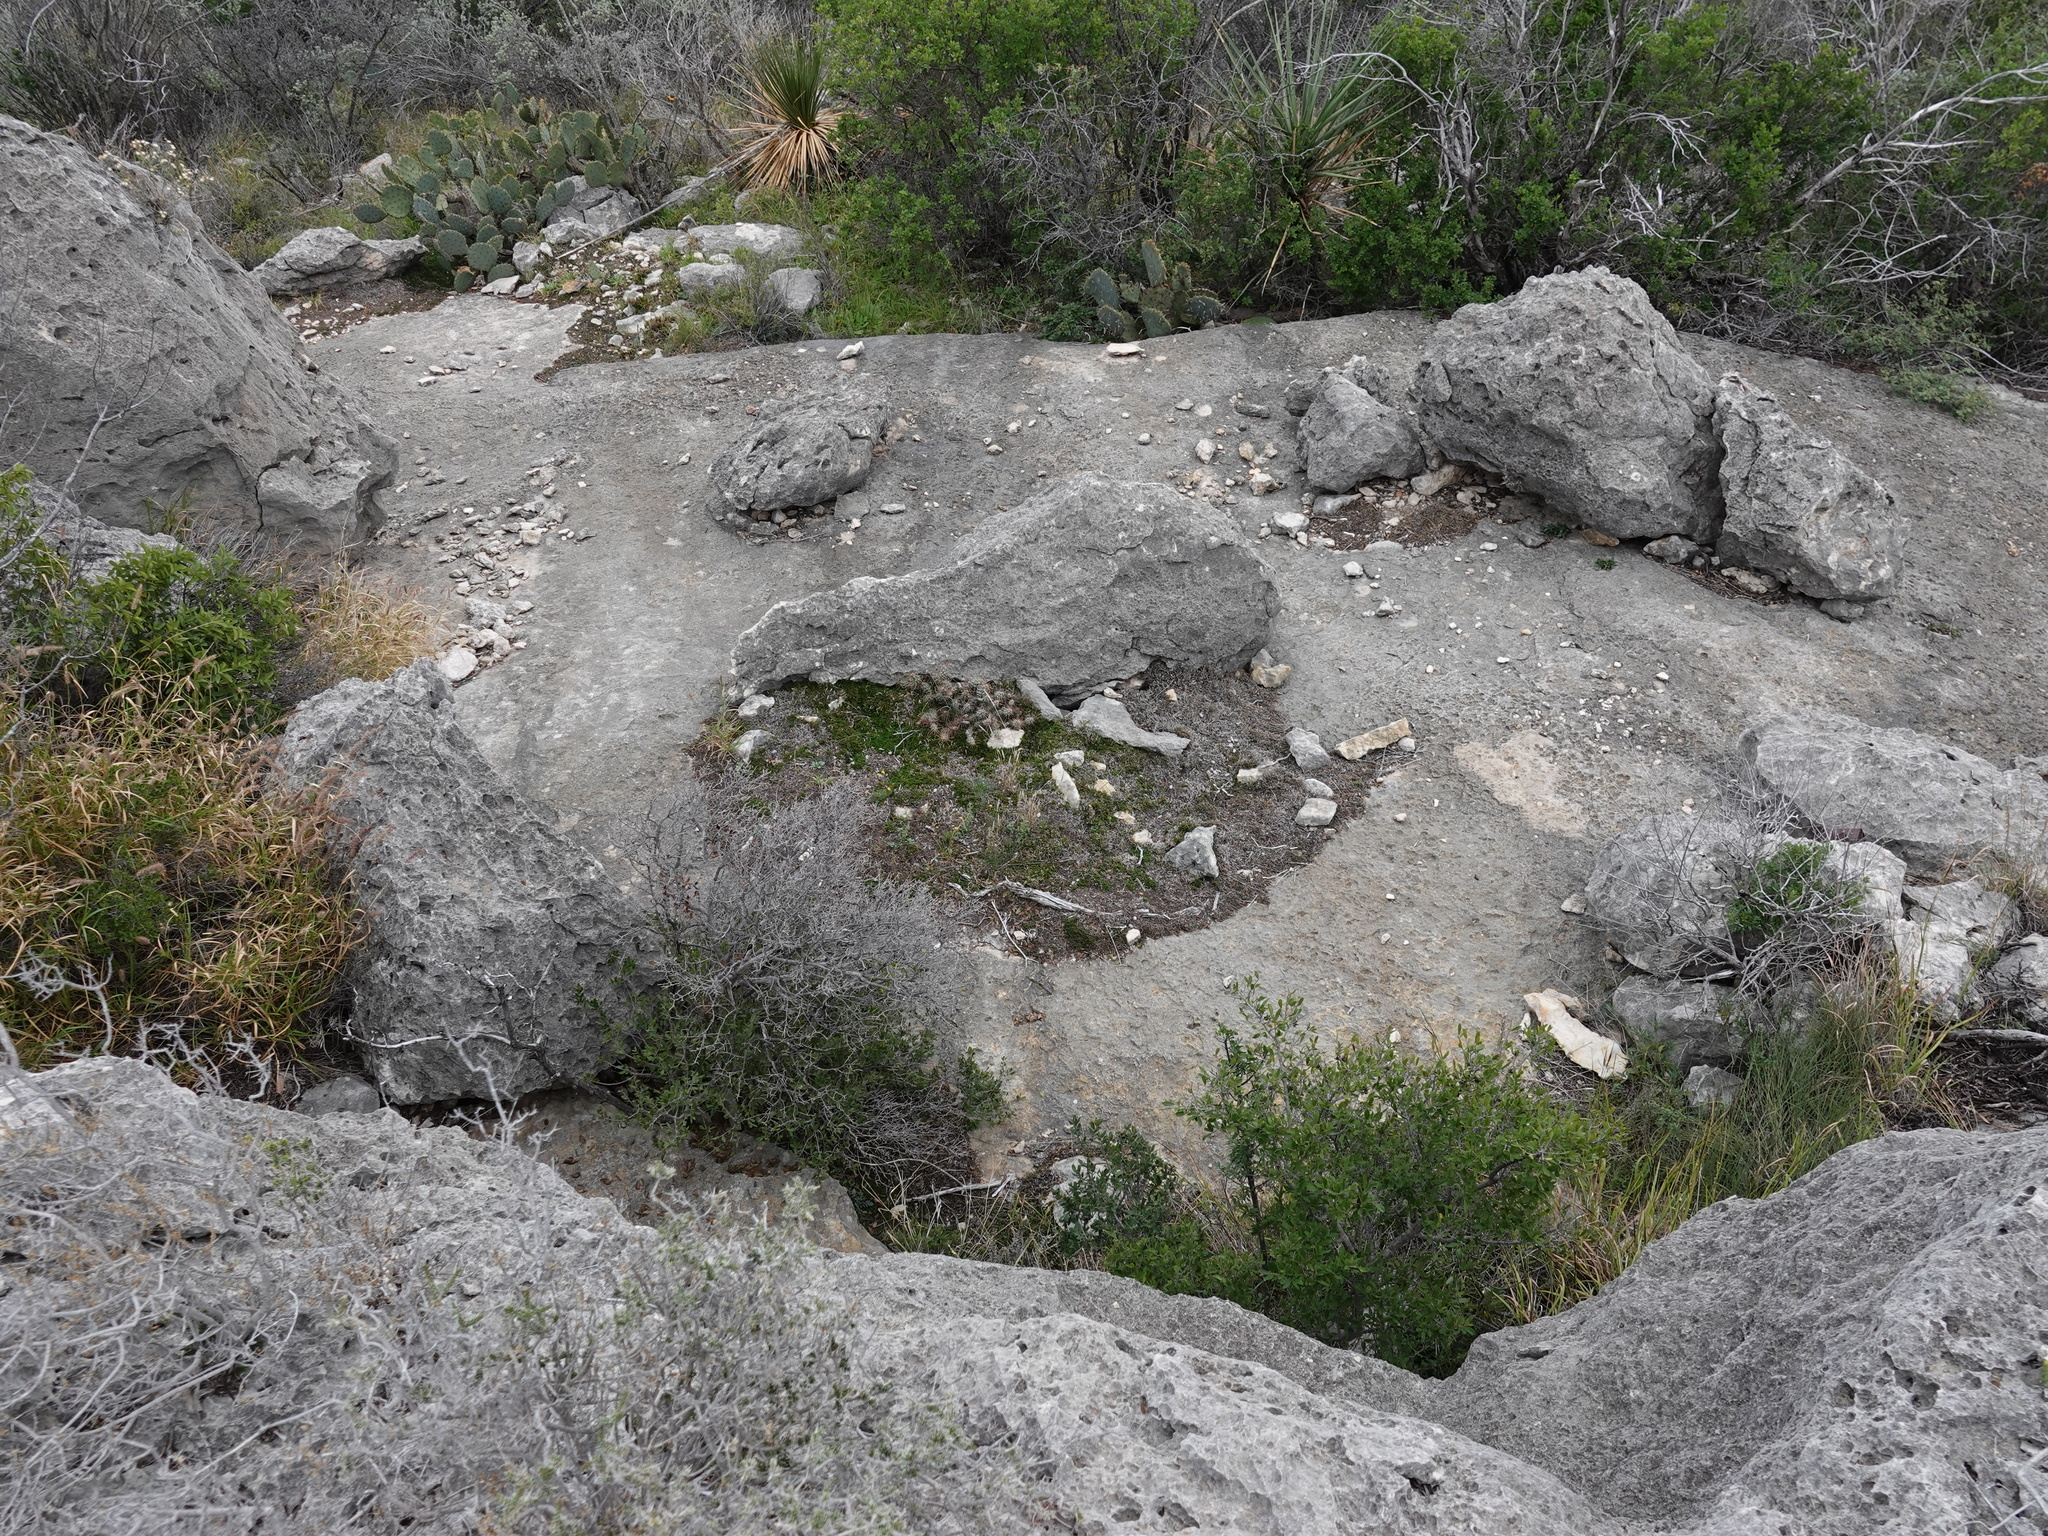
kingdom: Plantae
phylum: Tracheophyta
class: Magnoliopsida
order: Caryophyllales
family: Cactaceae
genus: Grusonia
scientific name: Grusonia schottii
